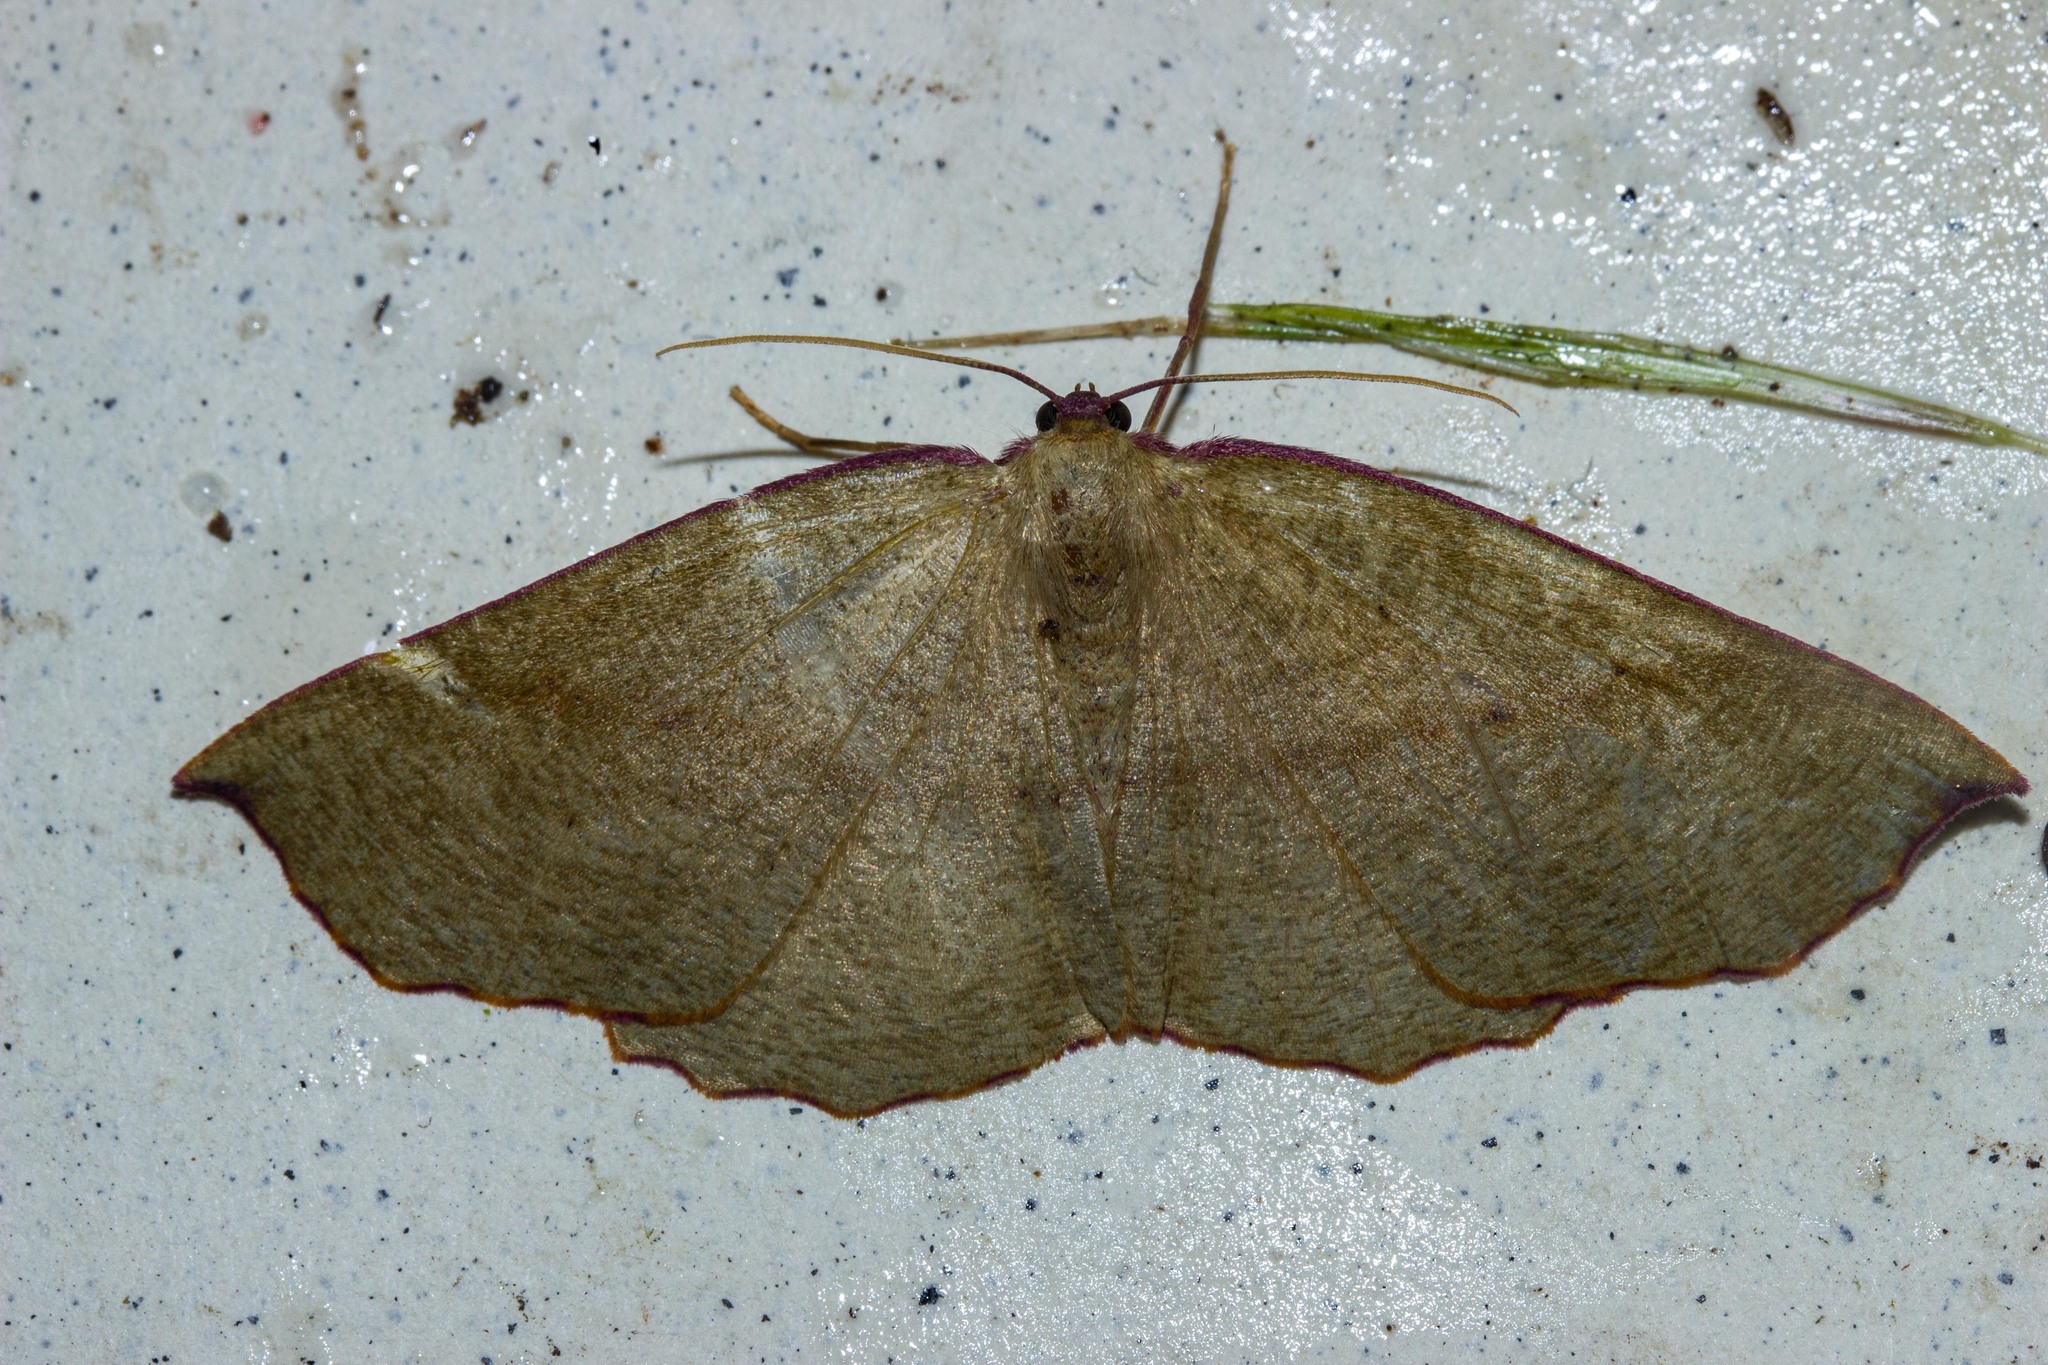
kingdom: Animalia
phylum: Arthropoda
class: Insecta
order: Lepidoptera
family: Geometridae
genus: Xyridacma
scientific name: Xyridacma alectoraria
